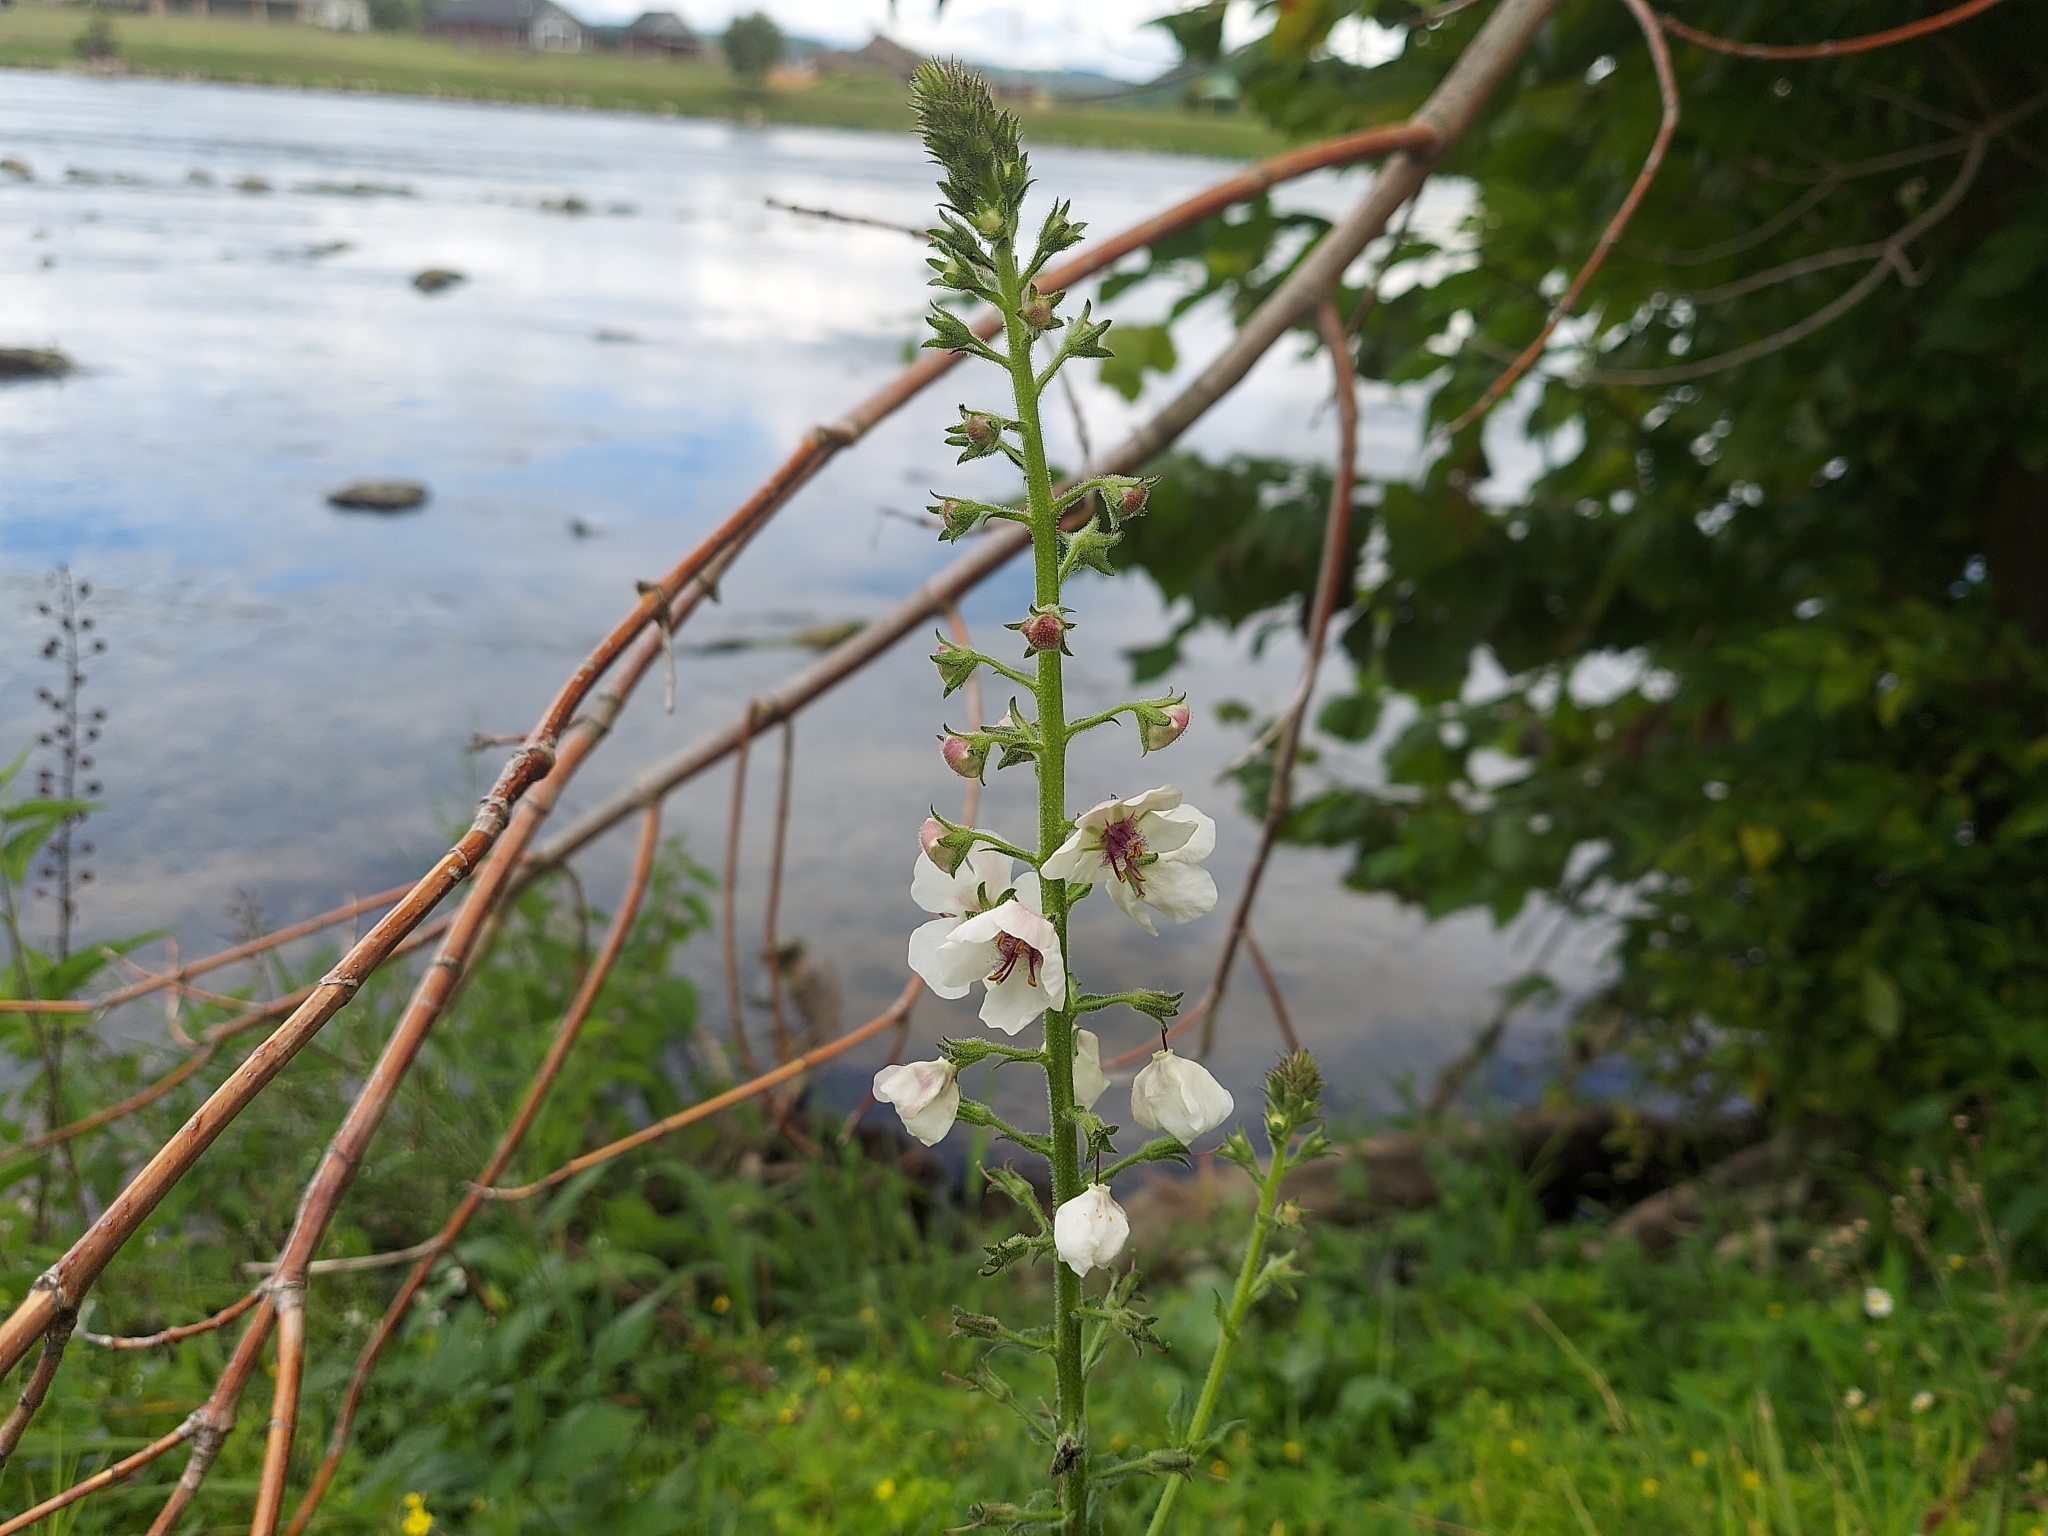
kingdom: Plantae
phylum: Tracheophyta
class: Magnoliopsida
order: Lamiales
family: Scrophulariaceae
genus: Verbascum
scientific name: Verbascum blattaria
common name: Moth mullein
